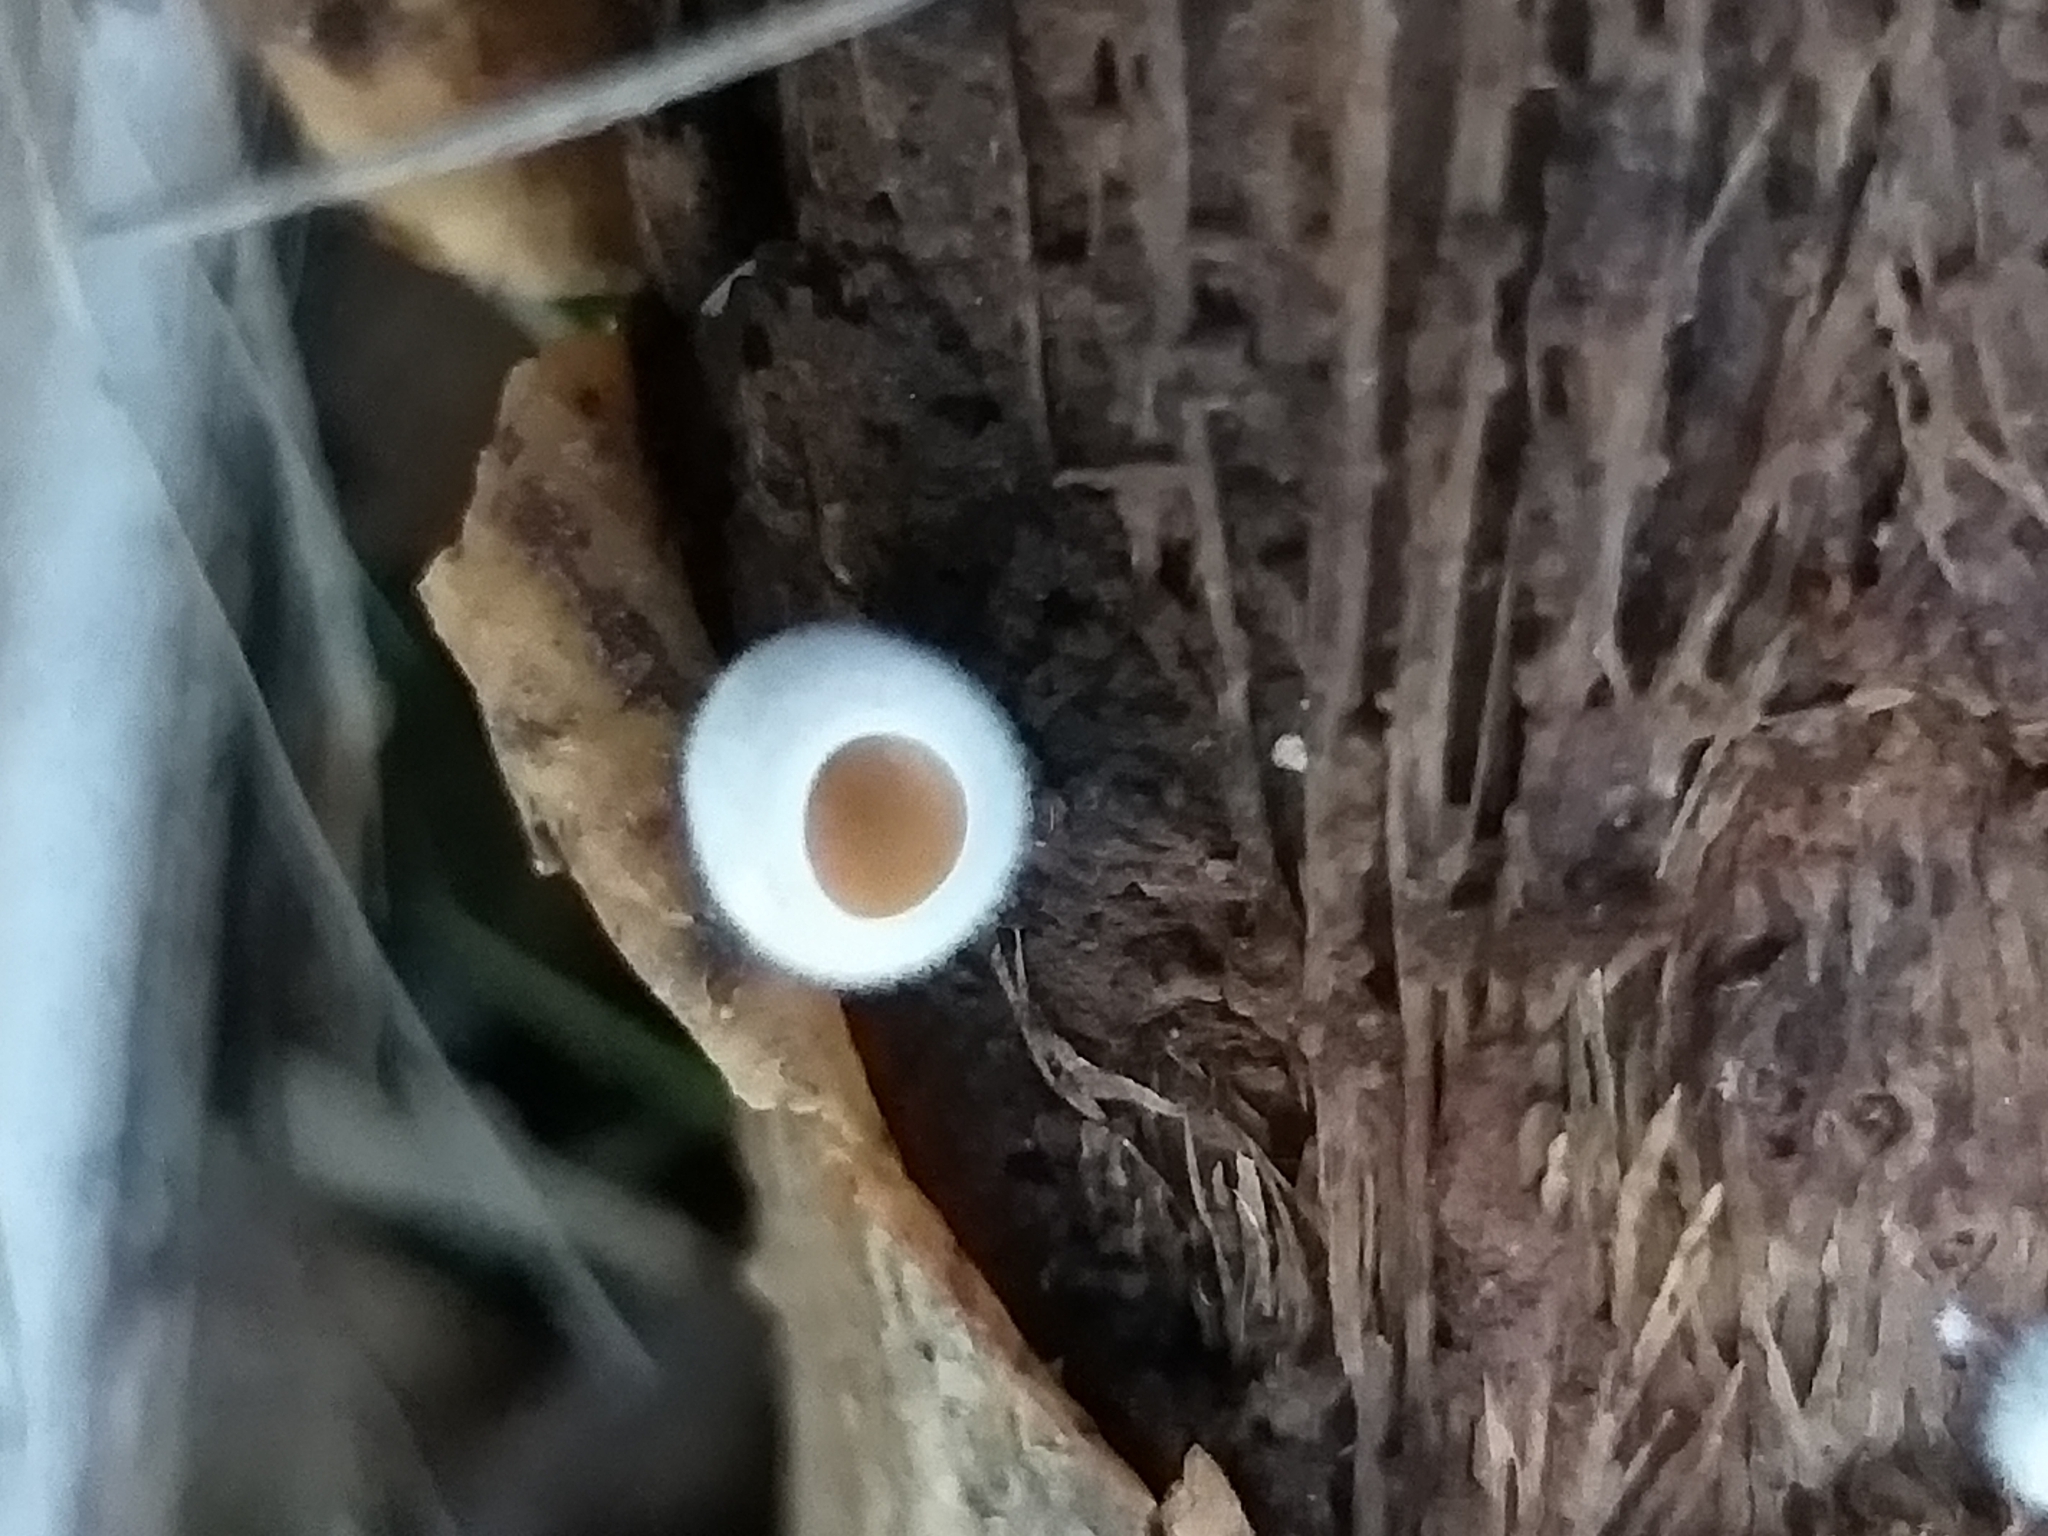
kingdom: Fungi
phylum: Basidiomycota
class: Agaricomycetes
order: Agaricales
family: Schizophyllaceae
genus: Schizophyllum
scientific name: Schizophyllum amplum
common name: Poplar bells
